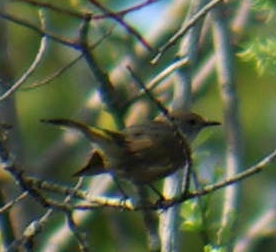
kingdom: Animalia
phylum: Chordata
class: Aves
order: Passeriformes
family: Parulidae
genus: Setophaga
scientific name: Setophaga ruticilla
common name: American redstart
